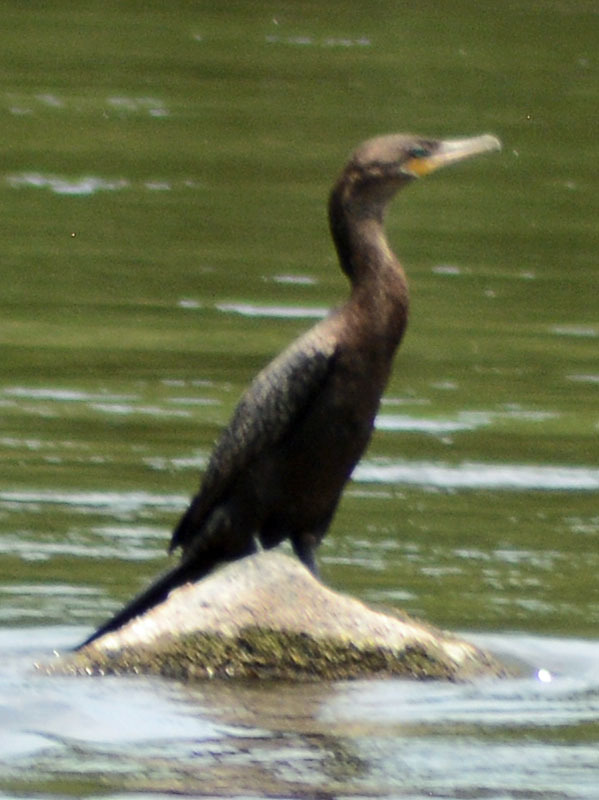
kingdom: Animalia
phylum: Chordata
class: Aves
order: Suliformes
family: Phalacrocoracidae
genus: Phalacrocorax
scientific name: Phalacrocorax brasilianus
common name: Neotropic cormorant
